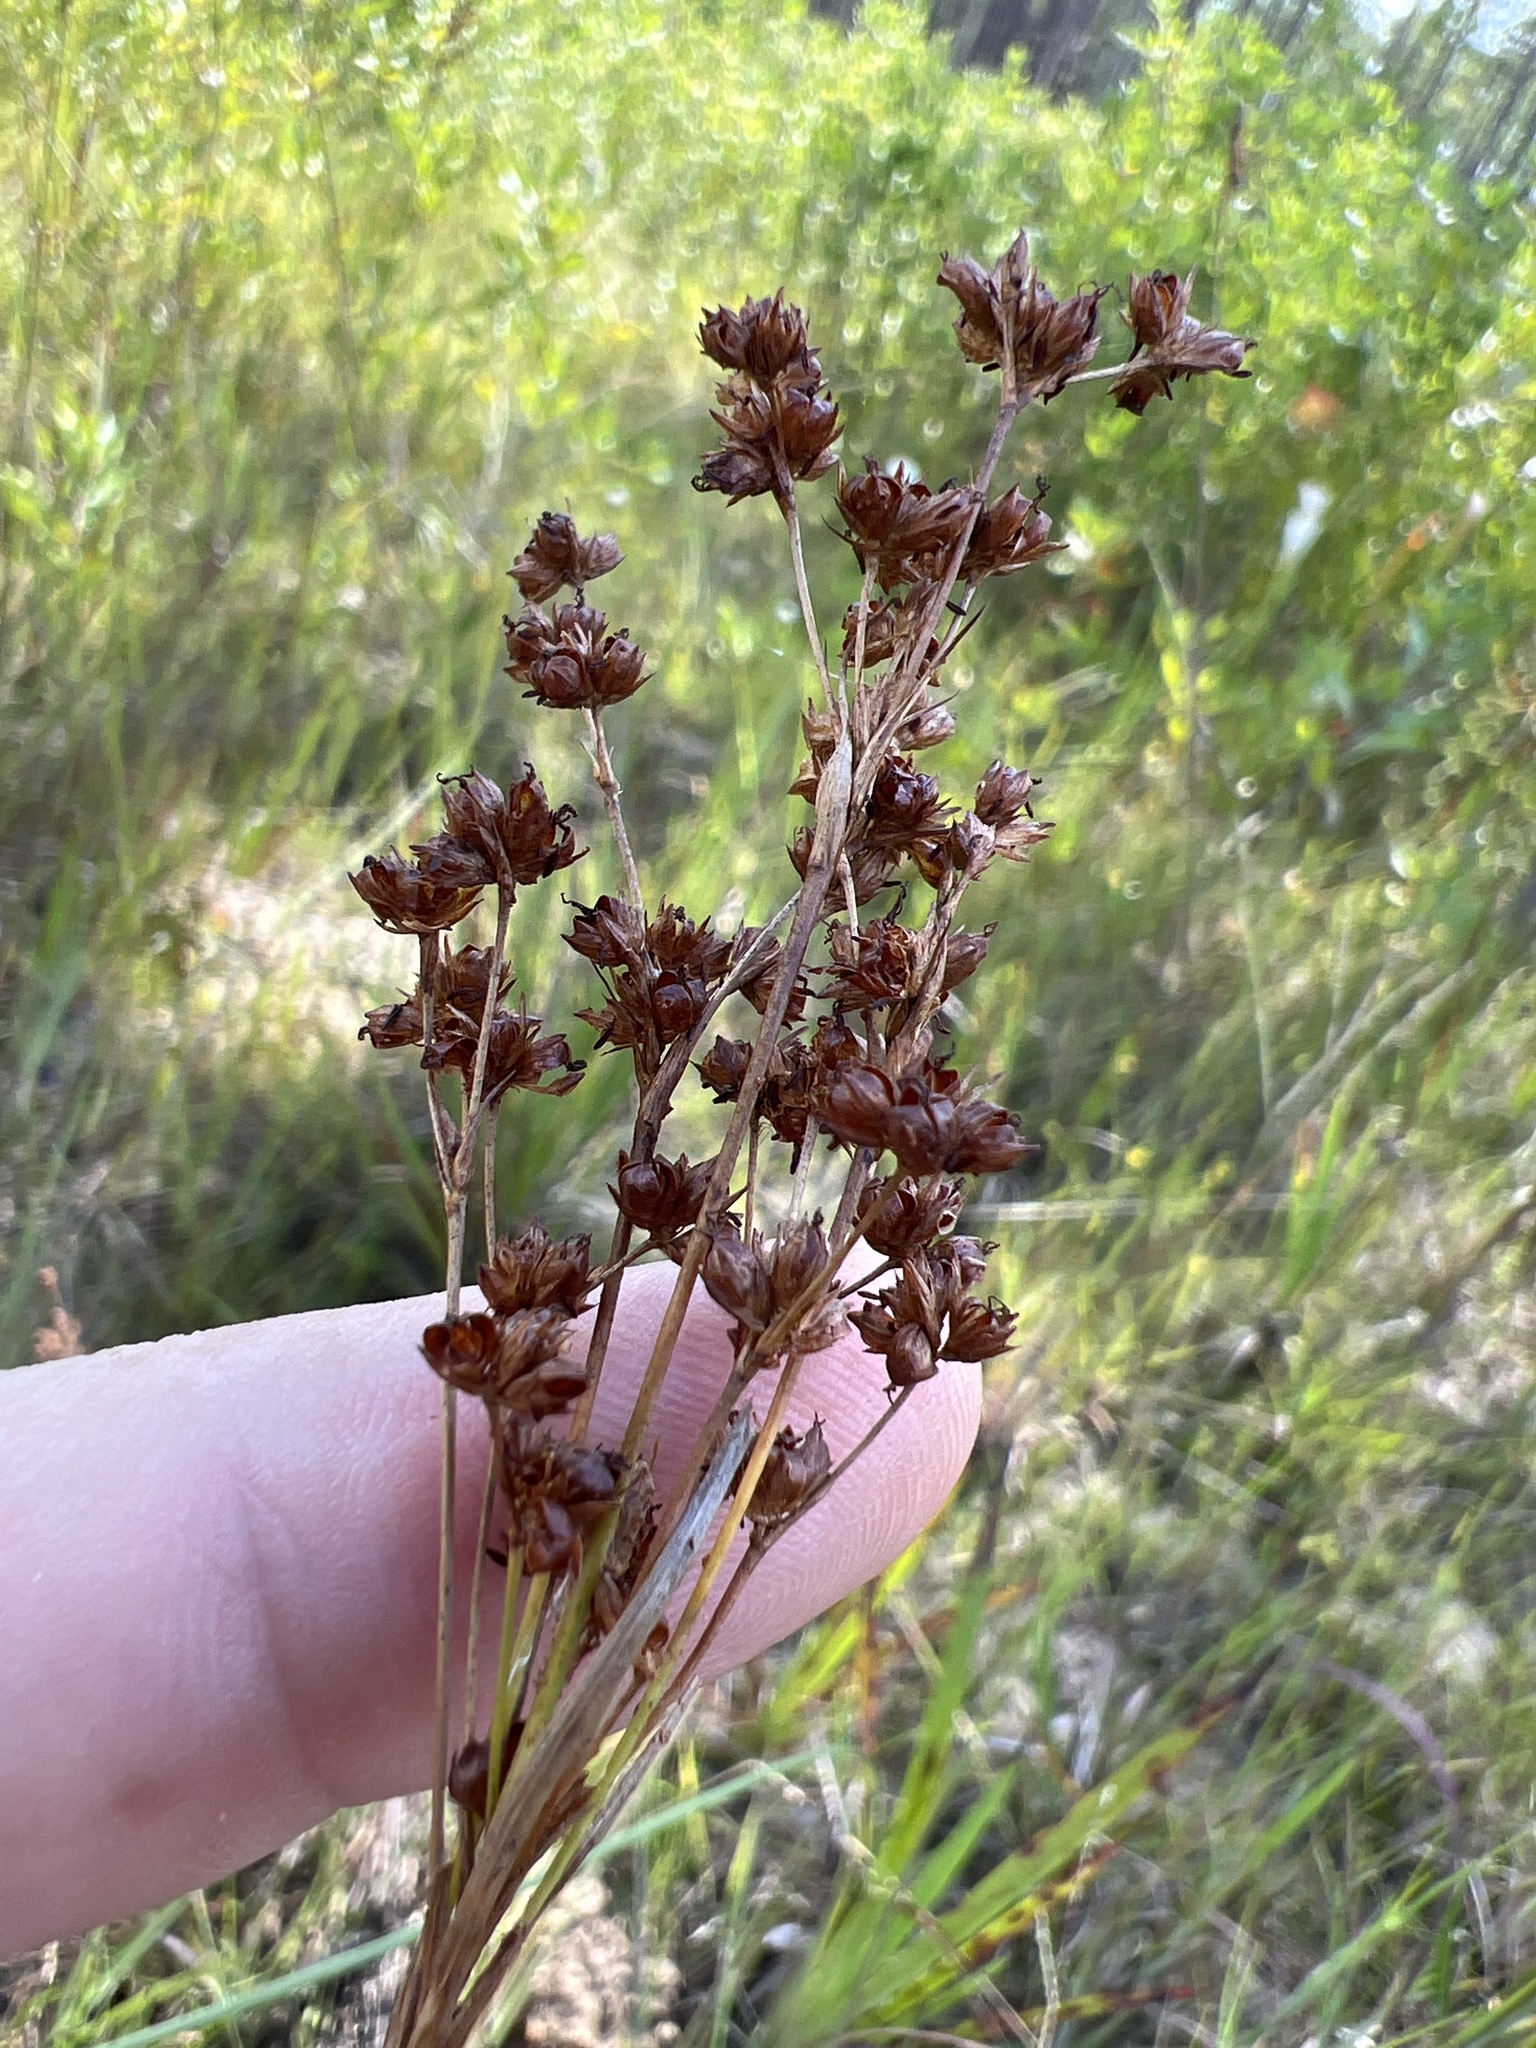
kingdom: Plantae
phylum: Tracheophyta
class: Liliopsida
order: Poales
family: Juncaceae
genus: Juncus
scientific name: Juncus marginatus
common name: Grass-leaf rush
